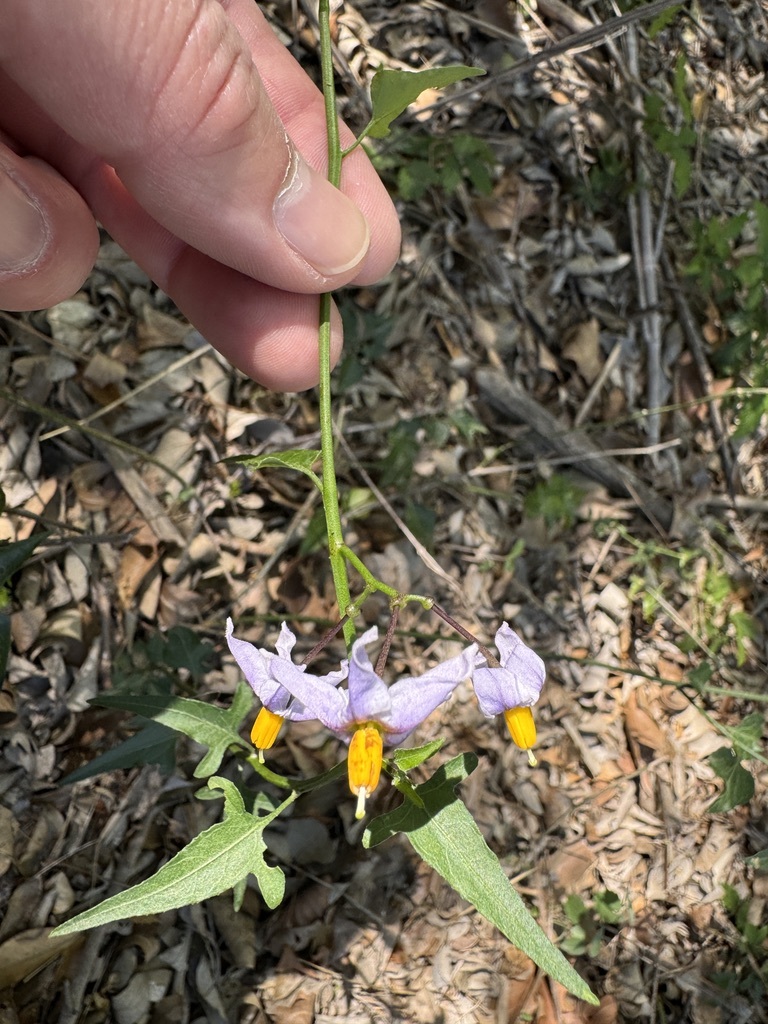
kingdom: Plantae
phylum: Tracheophyta
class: Magnoliopsida
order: Solanales
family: Solanaceae
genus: Solanum
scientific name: Solanum triquetrum
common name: Texas nightshade
